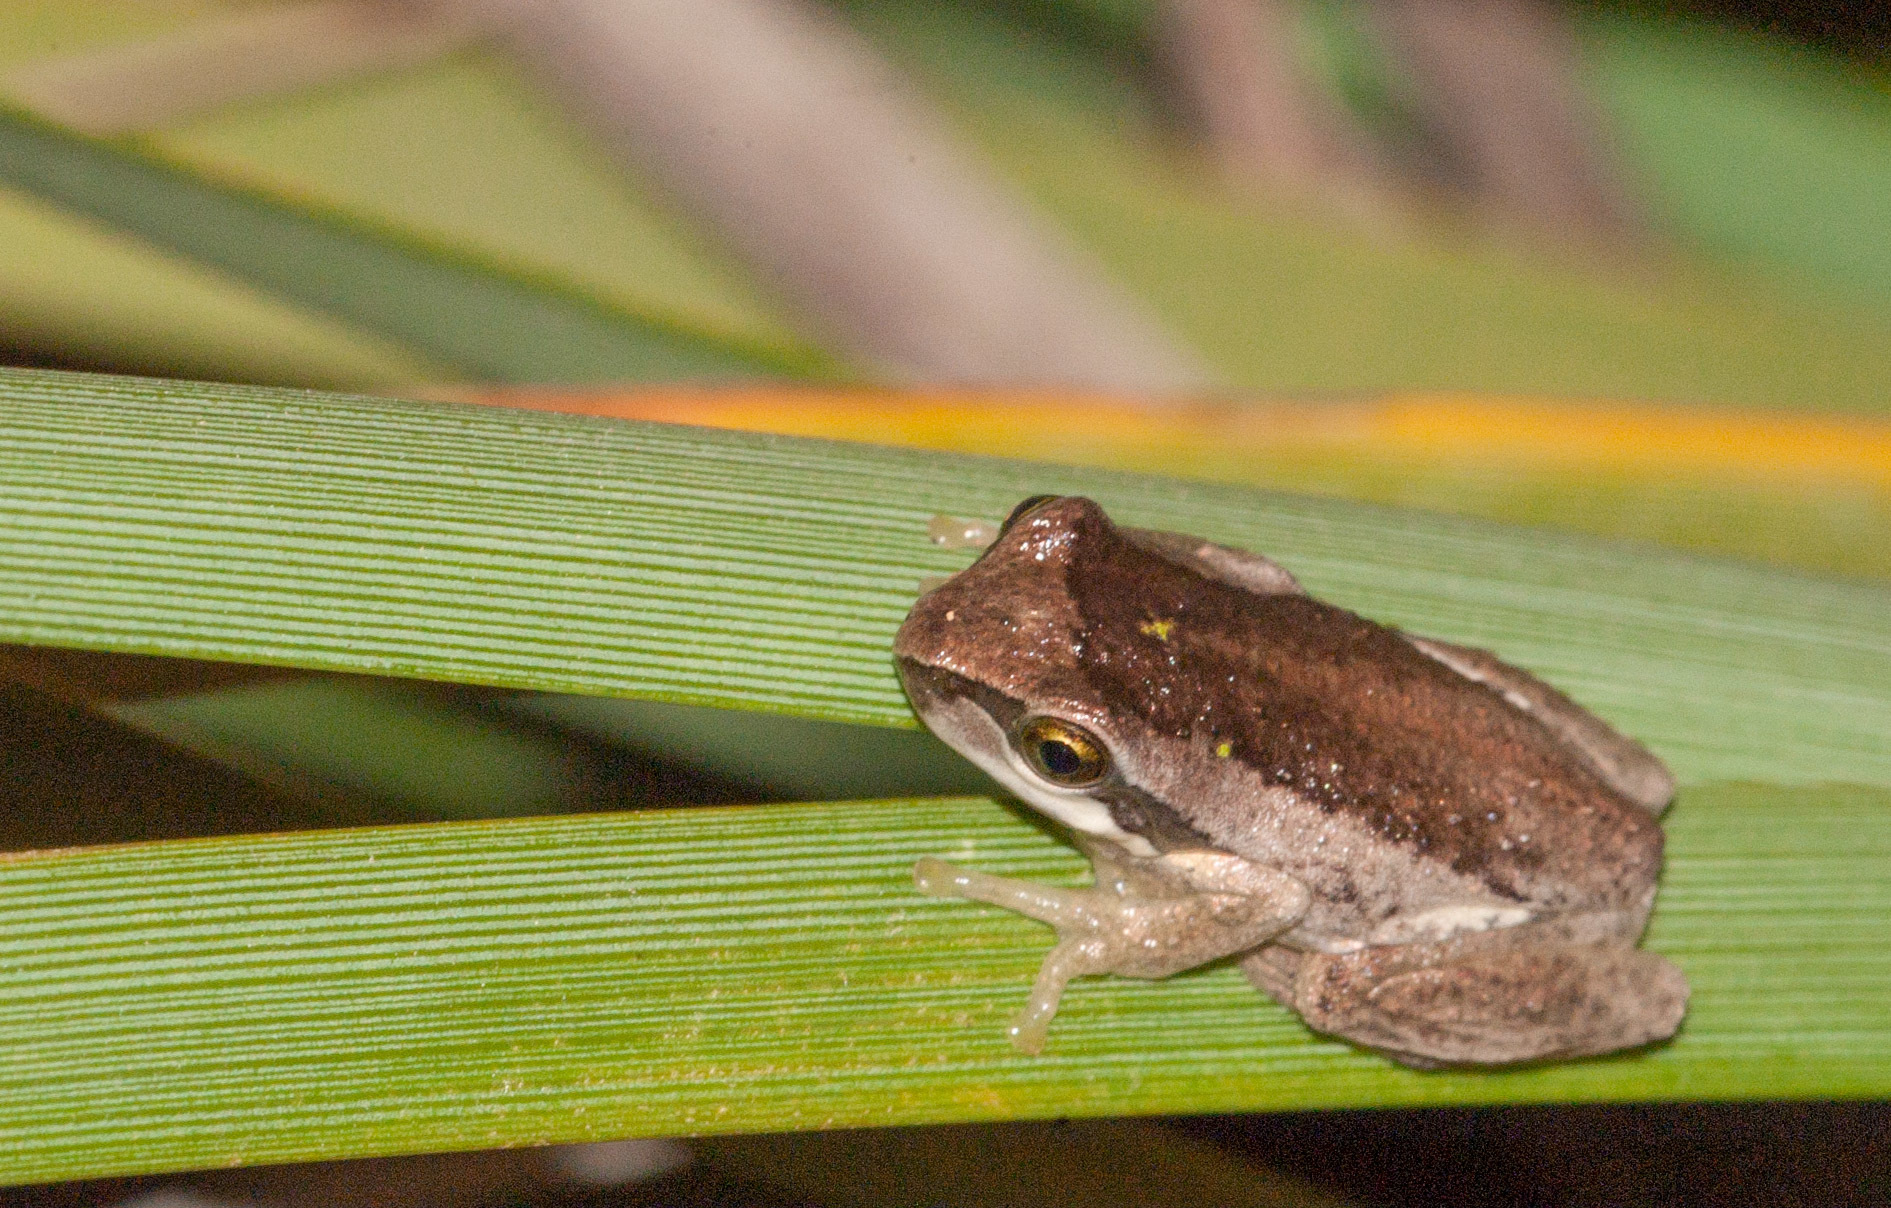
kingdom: Animalia
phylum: Chordata
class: Amphibia
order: Anura
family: Pelodryadidae
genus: Litoria
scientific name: Litoria ewingii
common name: Southern brown tree frog
